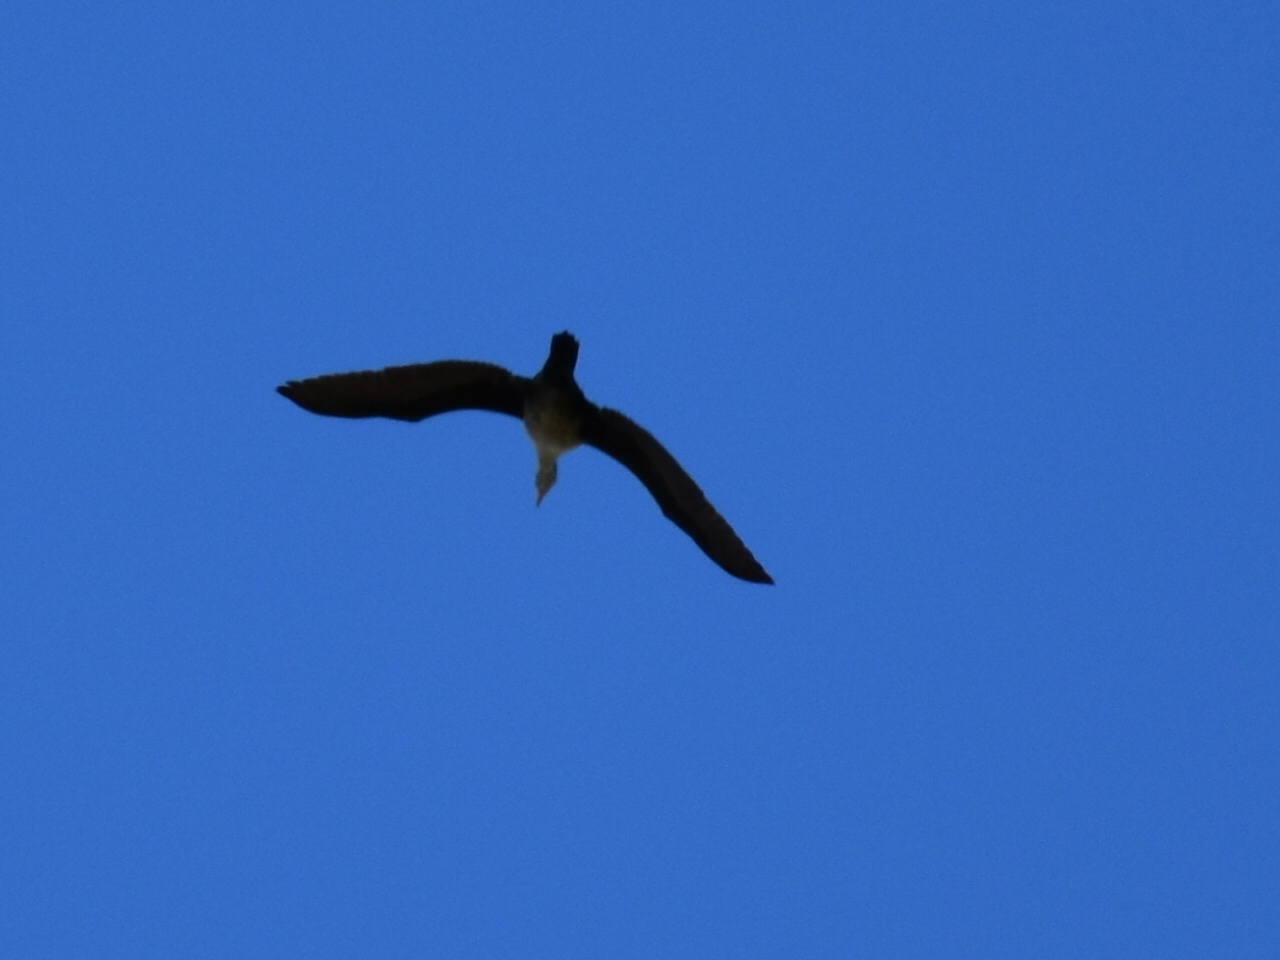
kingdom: Animalia
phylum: Chordata
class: Aves
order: Suliformes
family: Phalacrocoracidae
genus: Phalacrocorax
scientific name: Phalacrocorax auritus
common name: Double-crested cormorant
